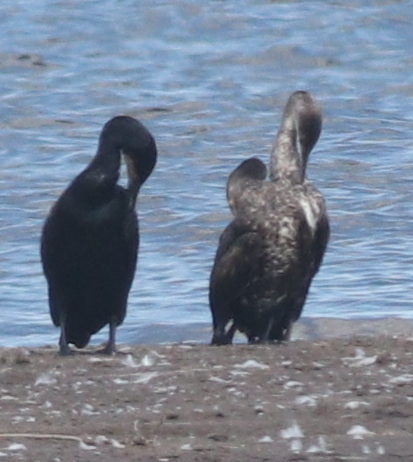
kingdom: Animalia
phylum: Chordata
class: Aves
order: Suliformes
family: Phalacrocoracidae
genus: Phalacrocorax
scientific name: Phalacrocorax carbo
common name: Great cormorant
